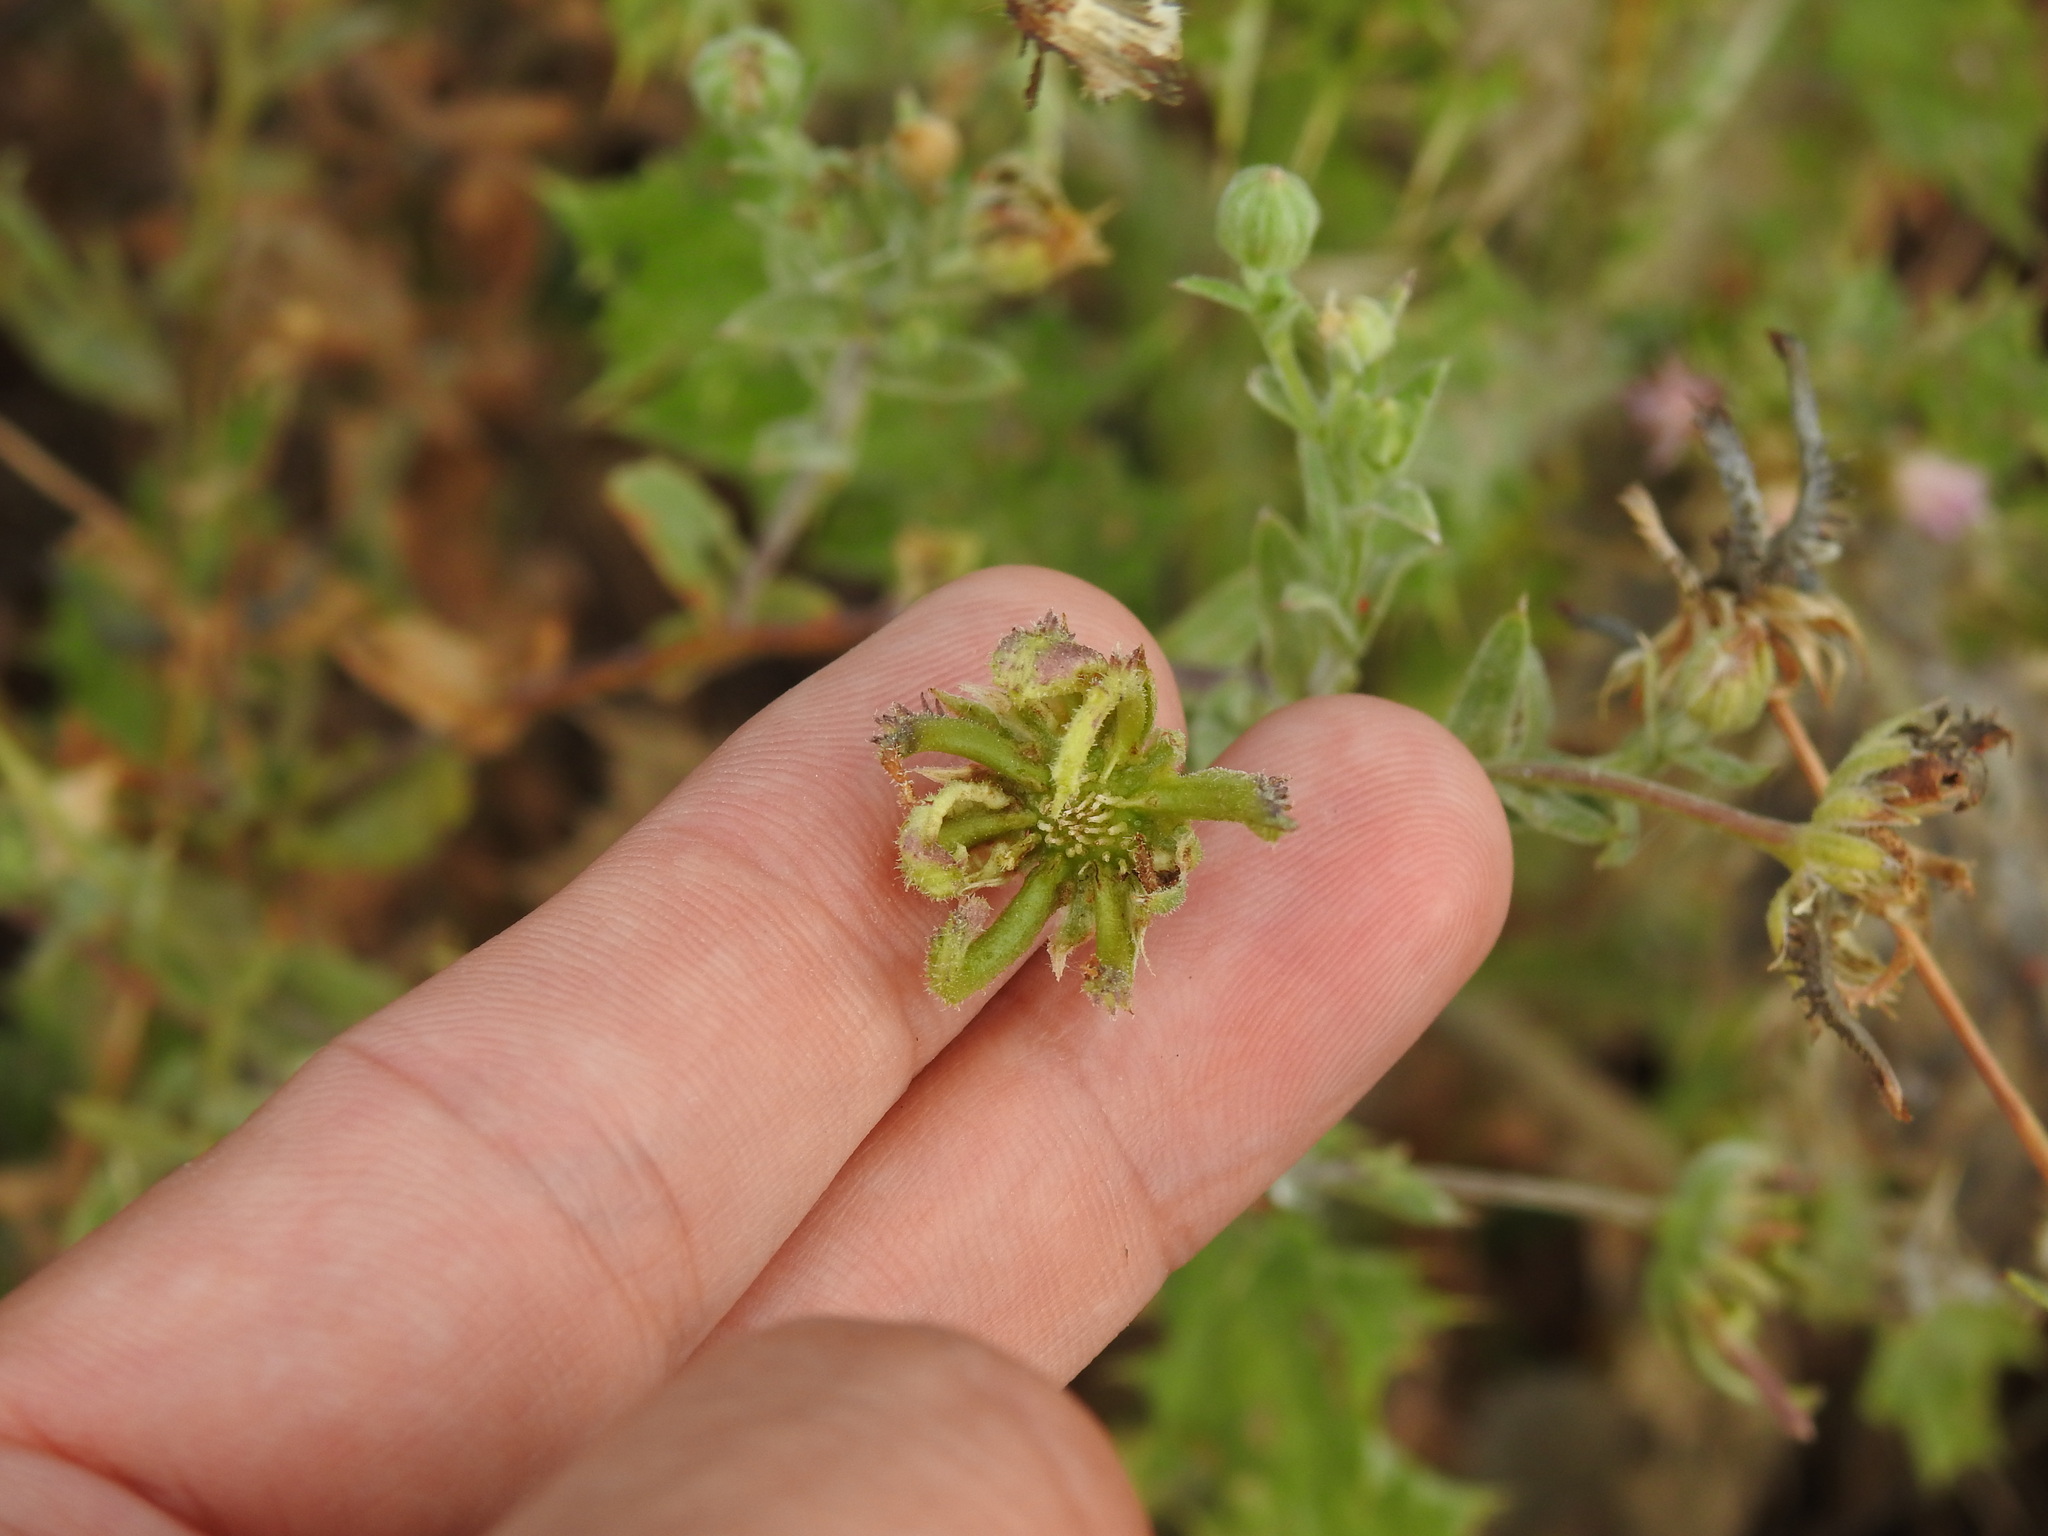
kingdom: Plantae
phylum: Tracheophyta
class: Magnoliopsida
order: Asterales
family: Asteraceae
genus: Calendula
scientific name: Calendula arvensis
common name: Field marigold
